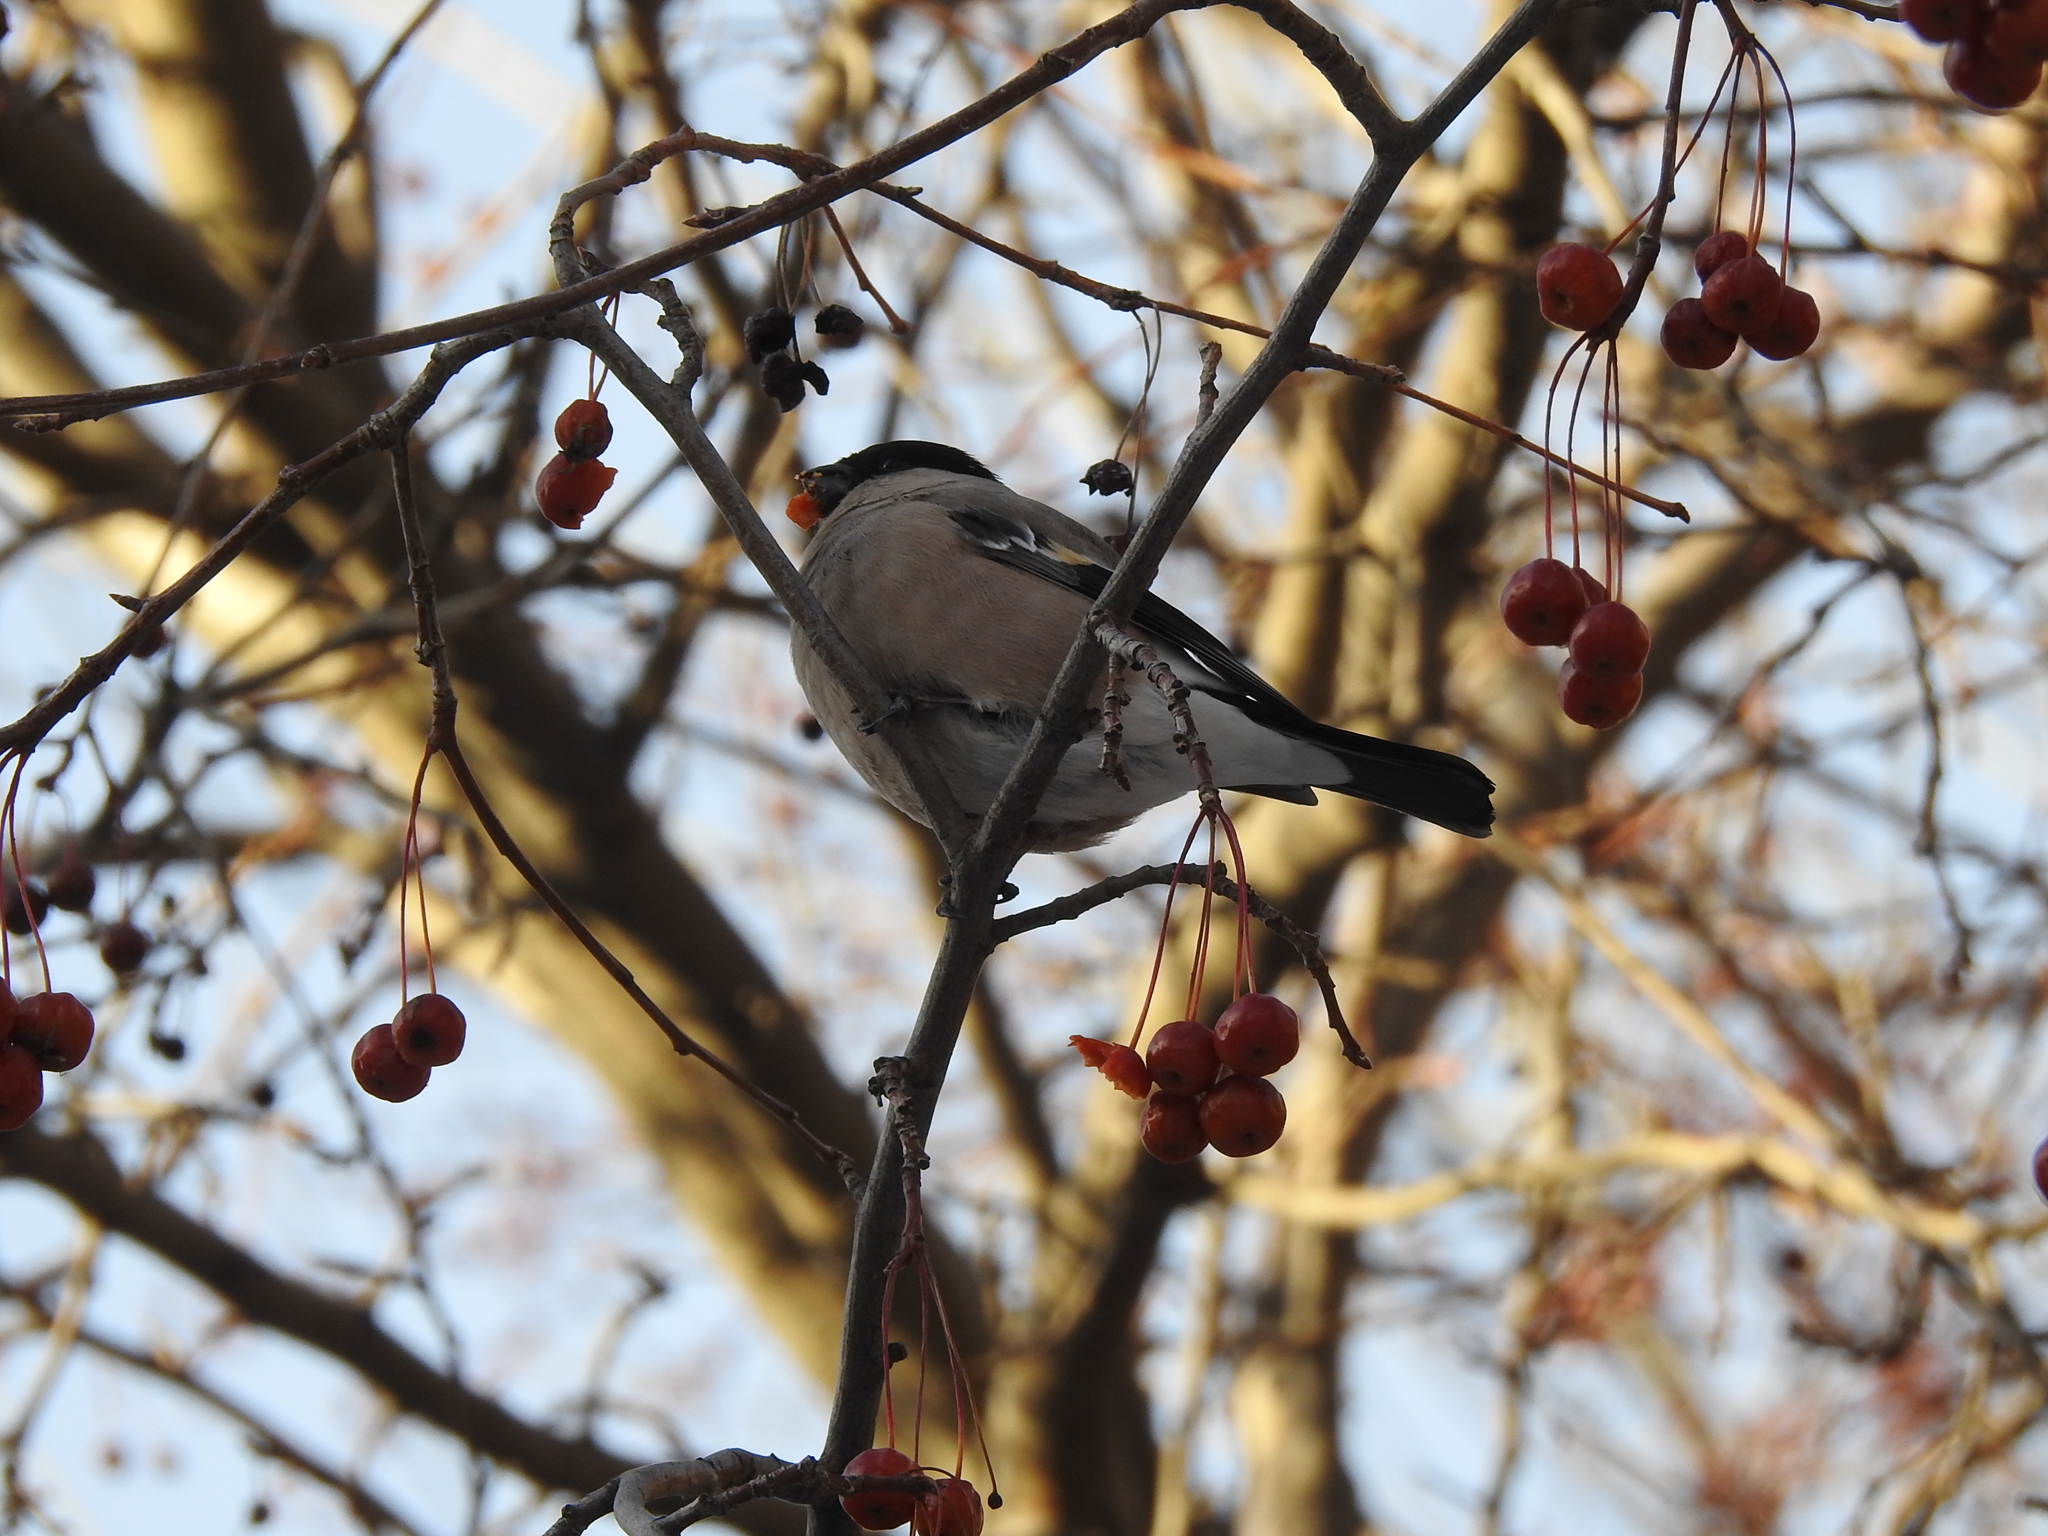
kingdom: Animalia
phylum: Chordata
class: Aves
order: Passeriformes
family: Fringillidae
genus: Pyrrhula
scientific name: Pyrrhula pyrrhula
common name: Eurasian bullfinch
